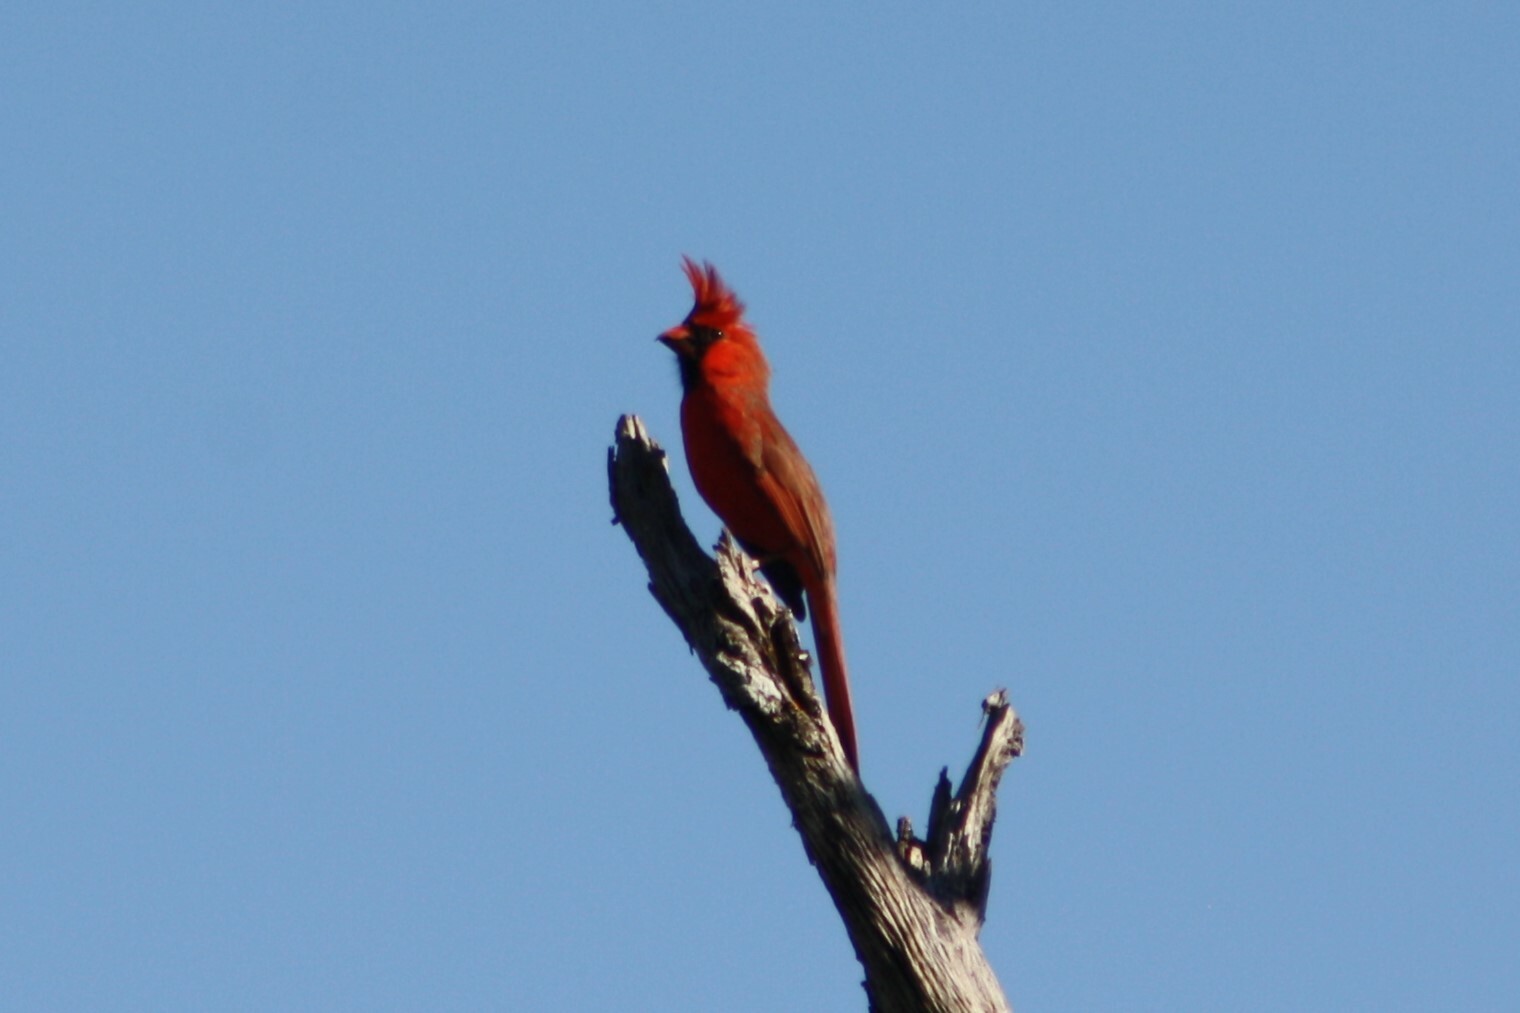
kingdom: Animalia
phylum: Chordata
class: Aves
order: Passeriformes
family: Cardinalidae
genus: Cardinalis
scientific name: Cardinalis cardinalis
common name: Northern cardinal
